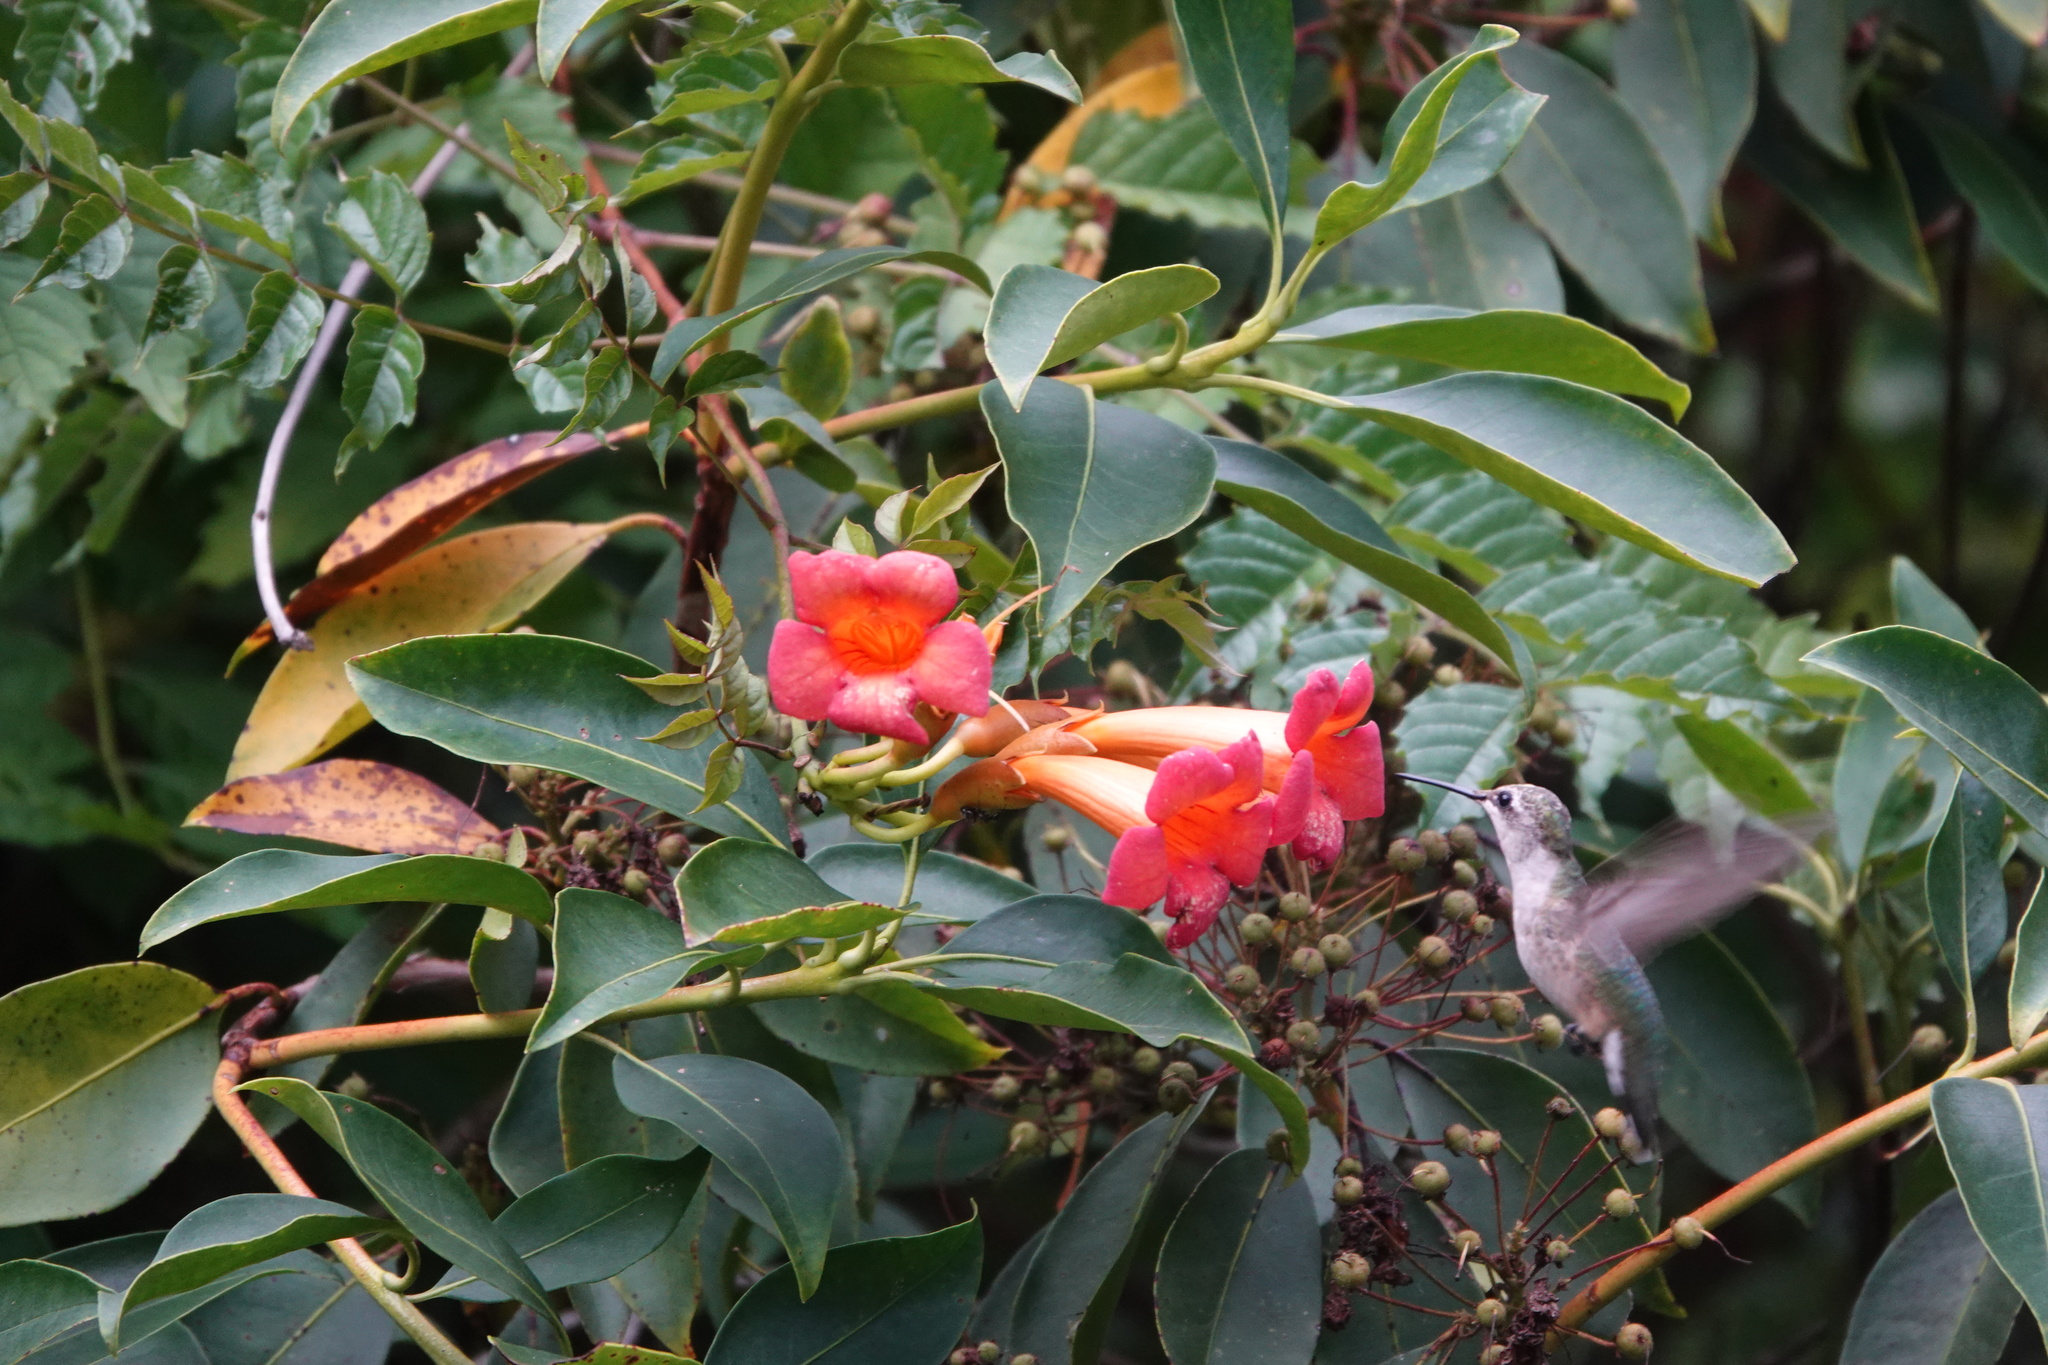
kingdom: Plantae
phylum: Tracheophyta
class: Magnoliopsida
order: Lamiales
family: Bignoniaceae
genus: Campsis
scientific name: Campsis radicans
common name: Trumpet-creeper
